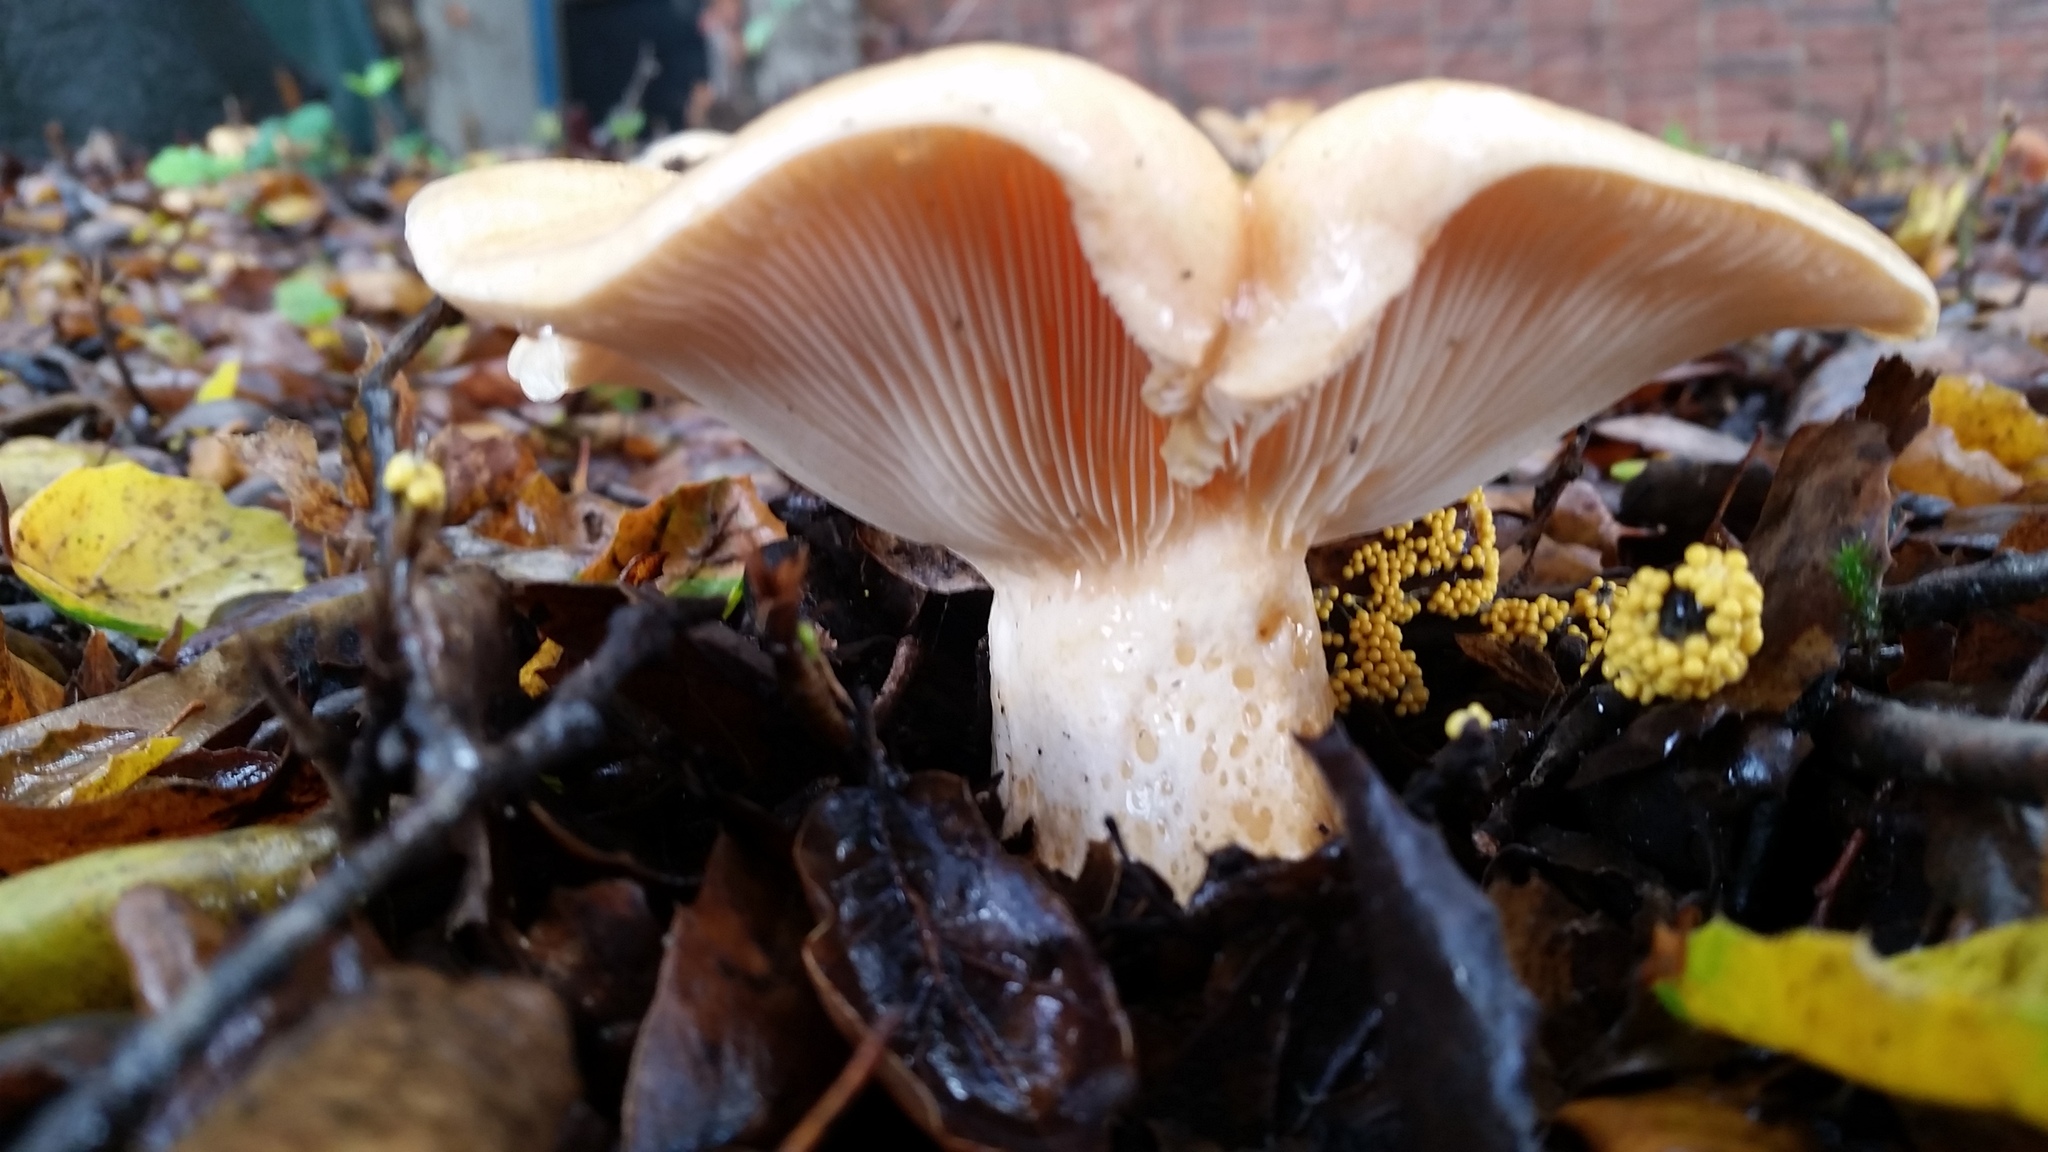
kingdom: Fungi
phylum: Basidiomycota
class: Agaricomycetes
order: Russulales
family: Russulaceae
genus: Lactarius
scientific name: Lactarius alnicola
